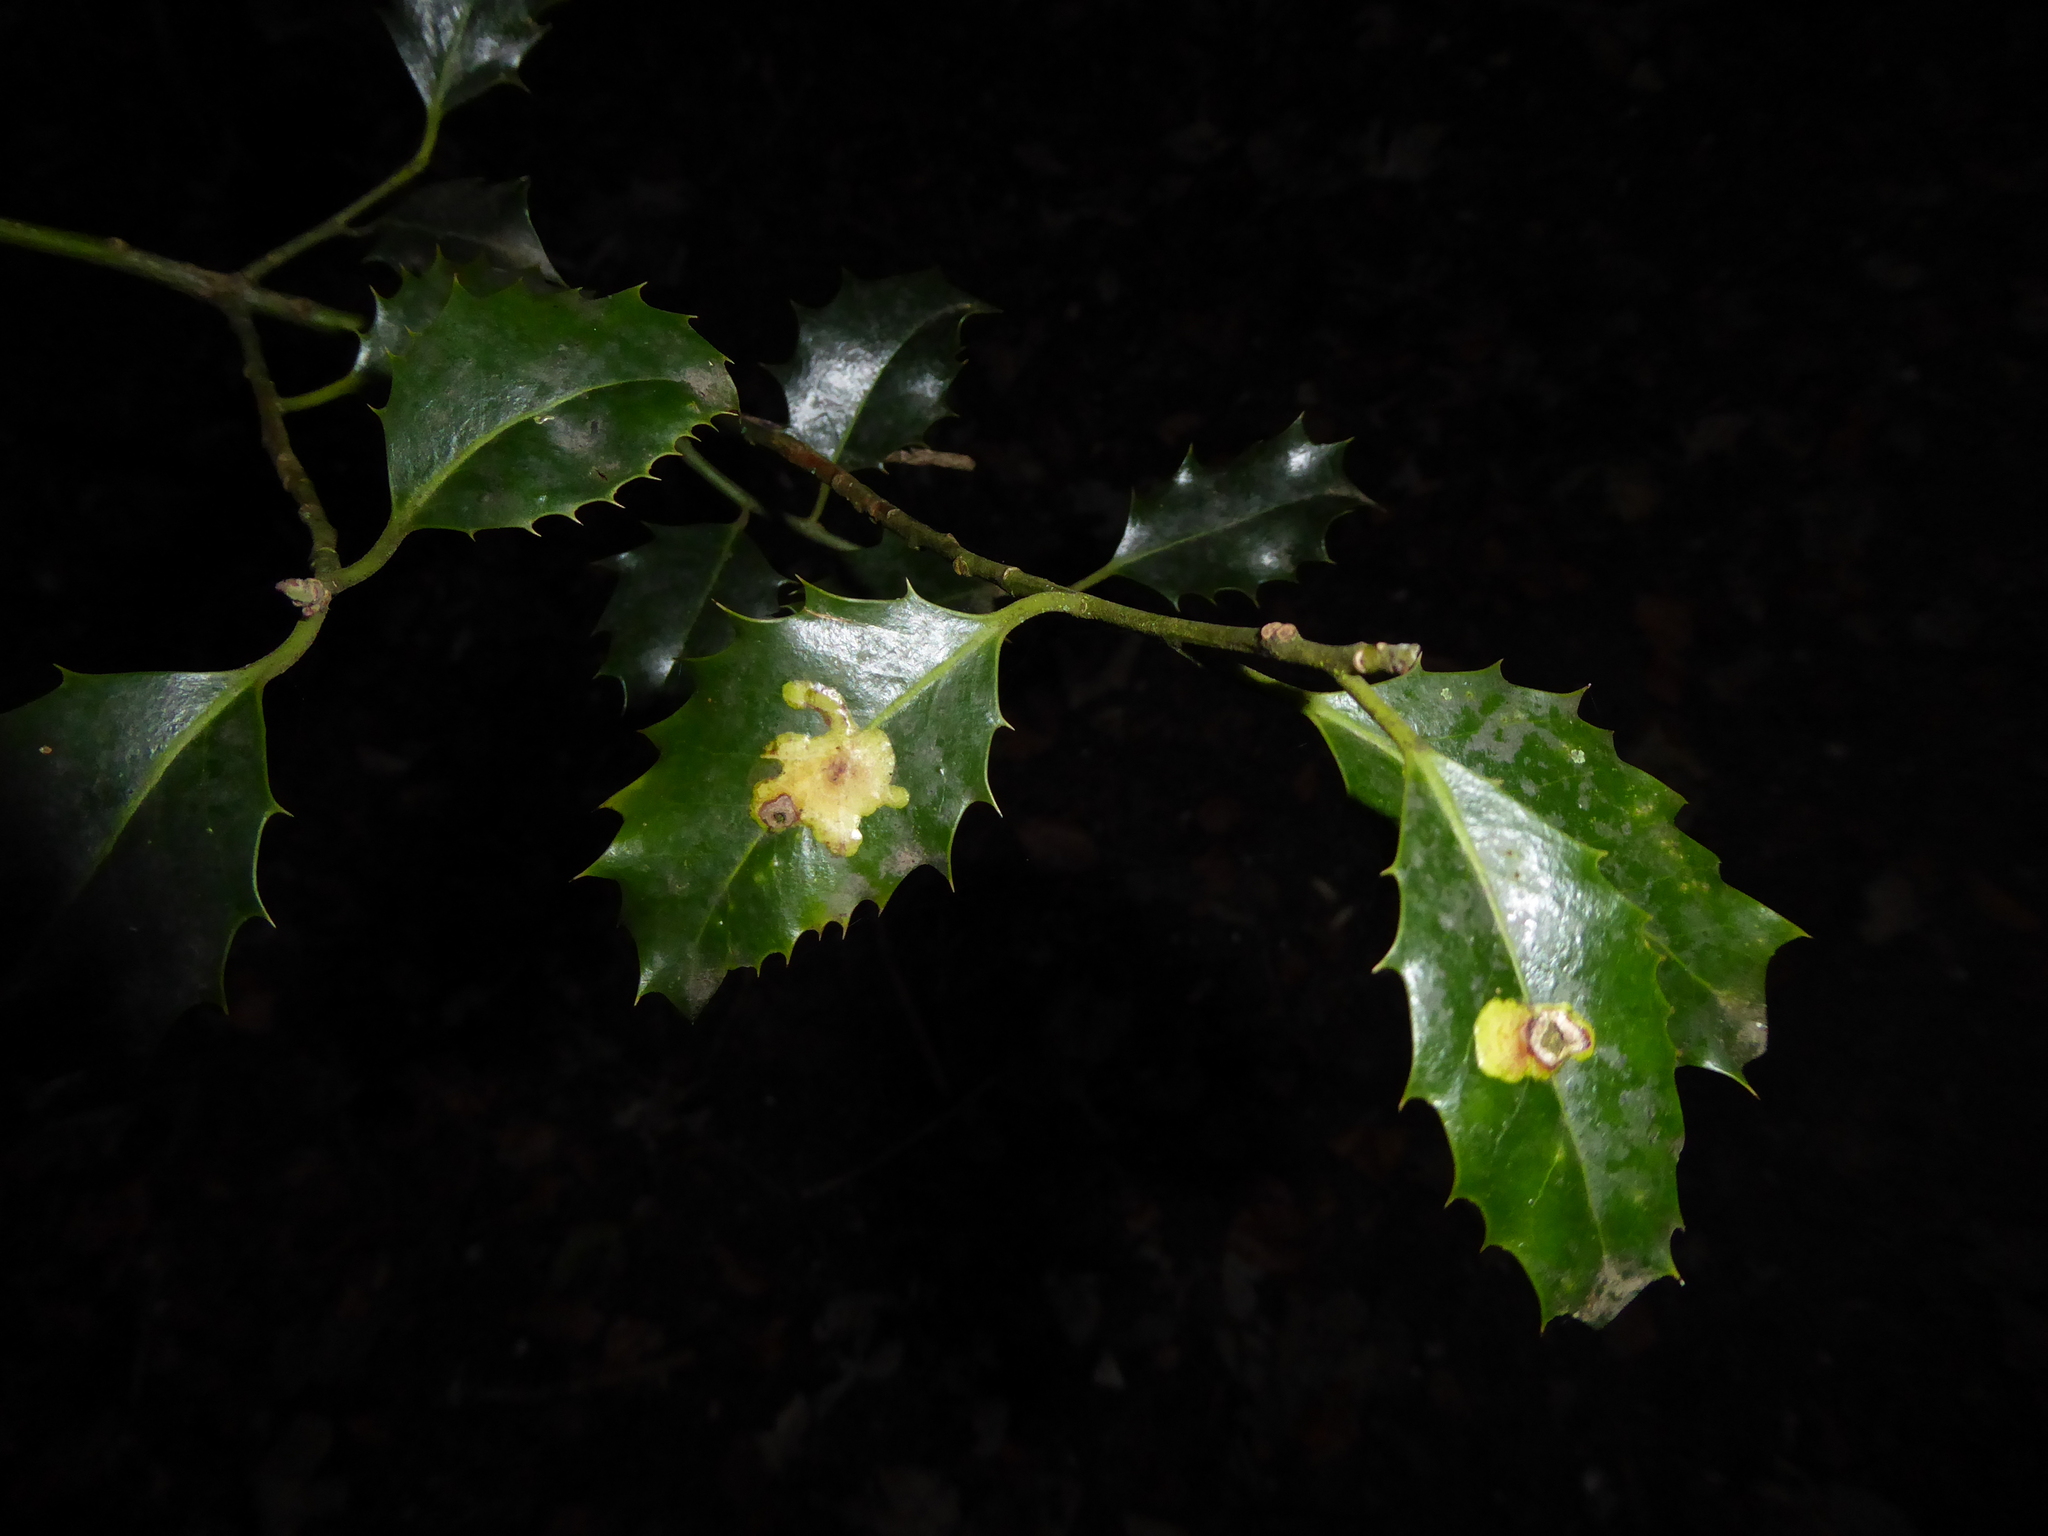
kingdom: Animalia
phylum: Arthropoda
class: Insecta
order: Diptera
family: Agromyzidae
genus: Phytomyza
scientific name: Phytomyza ilicis
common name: Holly leafminer
